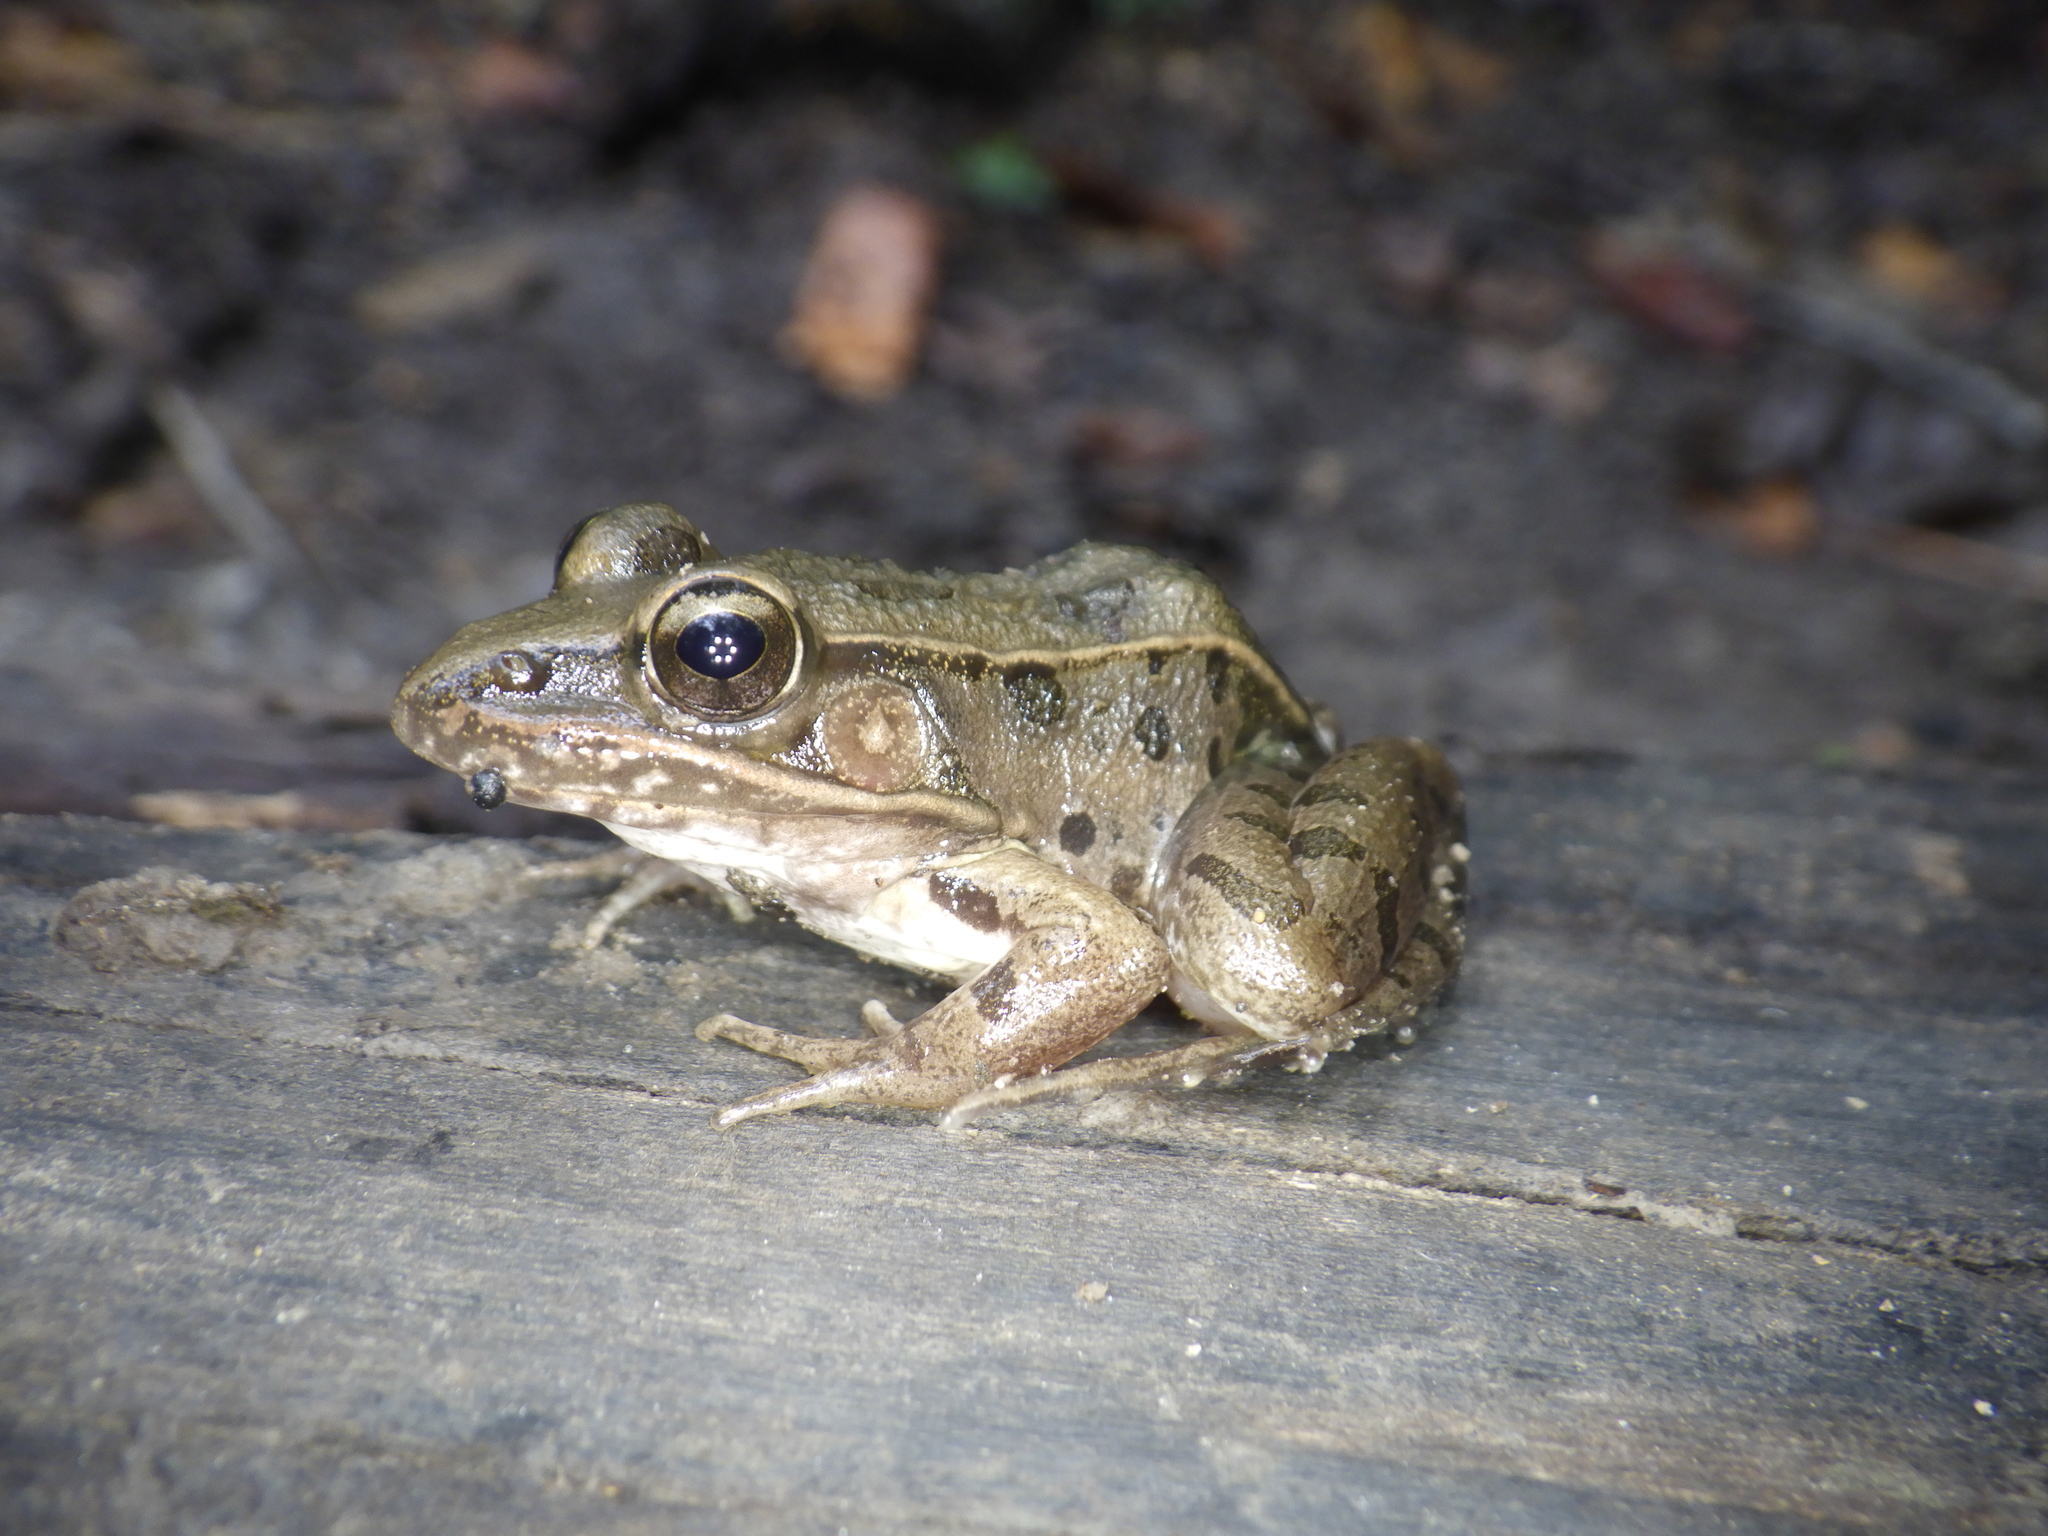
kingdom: Animalia
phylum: Chordata
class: Amphibia
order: Anura
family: Ranidae
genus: Lithobates
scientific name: Lithobates sphenocephalus
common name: Southern leopard frog
